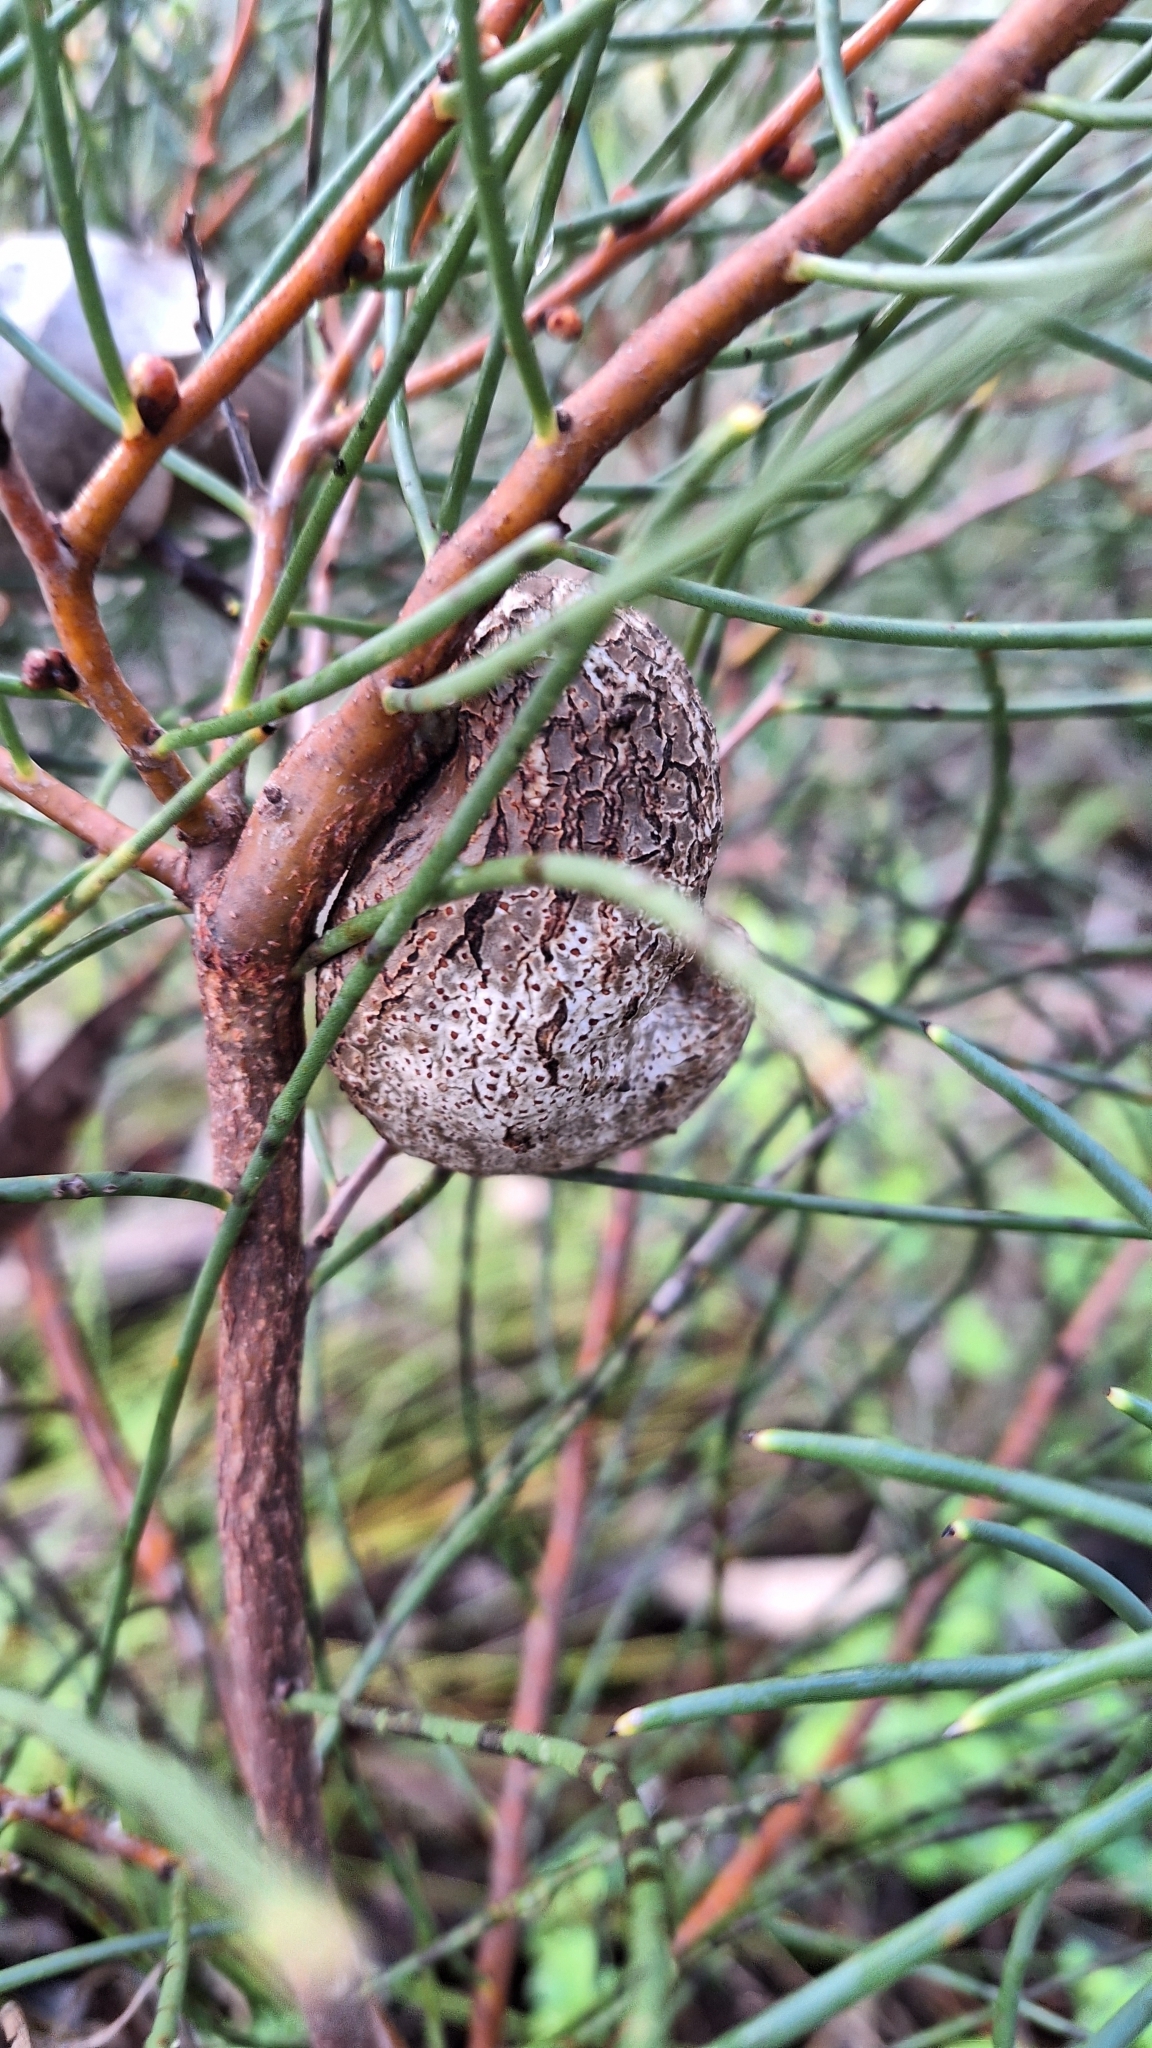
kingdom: Plantae
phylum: Tracheophyta
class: Magnoliopsida
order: Proteales
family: Proteaceae
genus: Hakea
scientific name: Hakea rostrata
